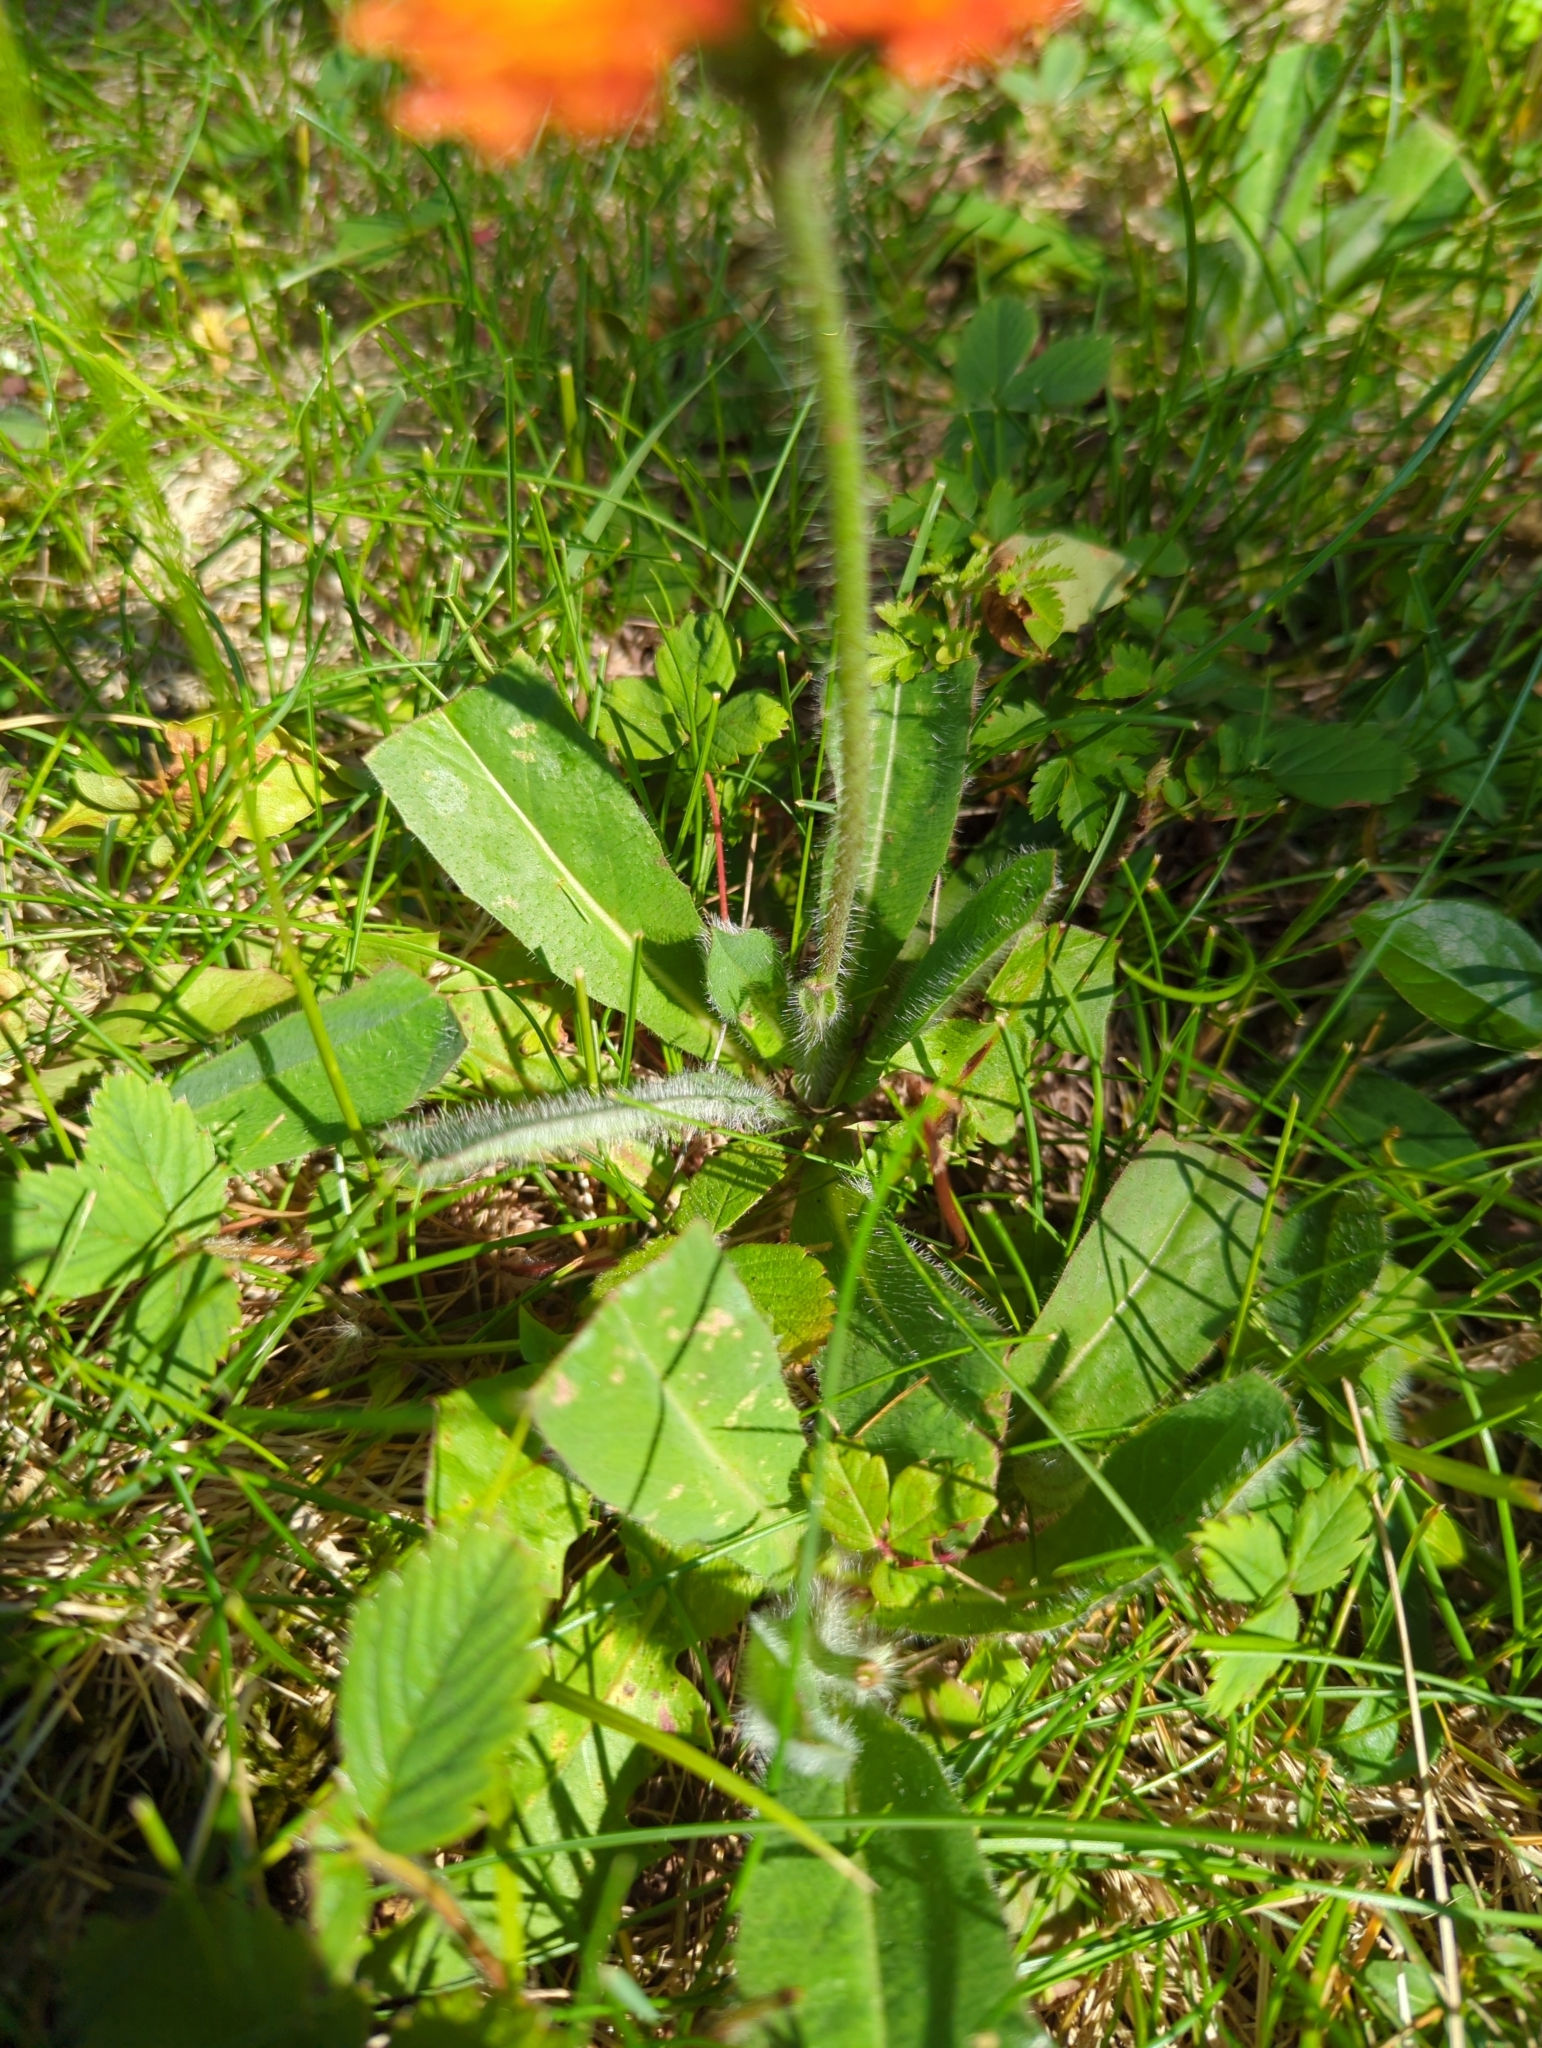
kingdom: Plantae
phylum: Tracheophyta
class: Magnoliopsida
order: Asterales
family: Asteraceae
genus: Pilosella
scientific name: Pilosella aurantiaca
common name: Fox-and-cubs
